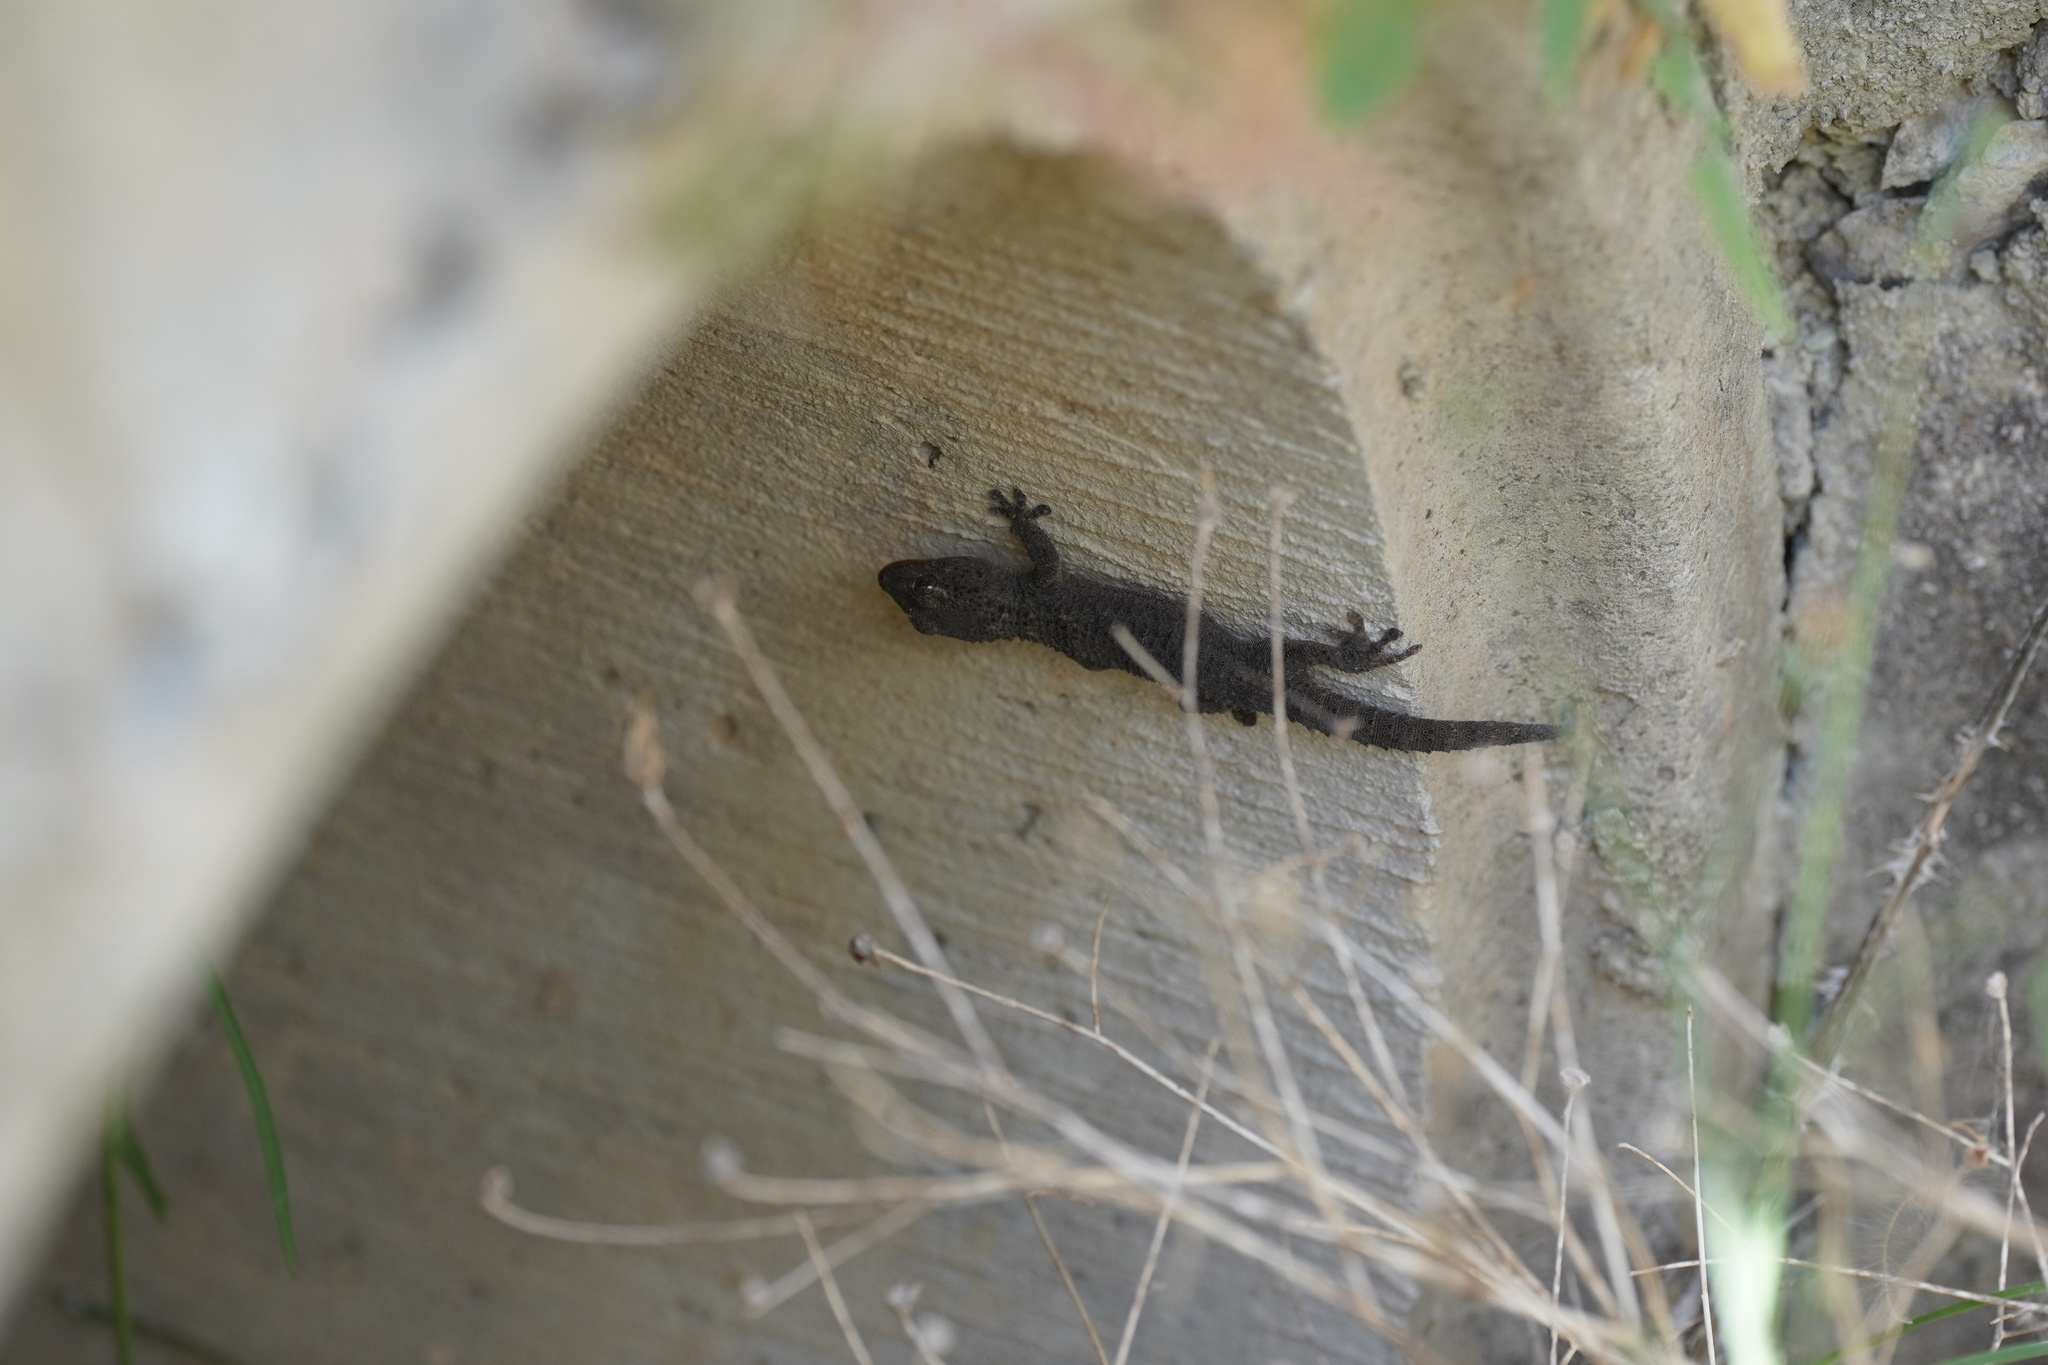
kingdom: Animalia
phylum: Chordata
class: Squamata
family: Phyllodactylidae
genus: Tarentola
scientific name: Tarentola mauritanica
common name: Moorish gecko
